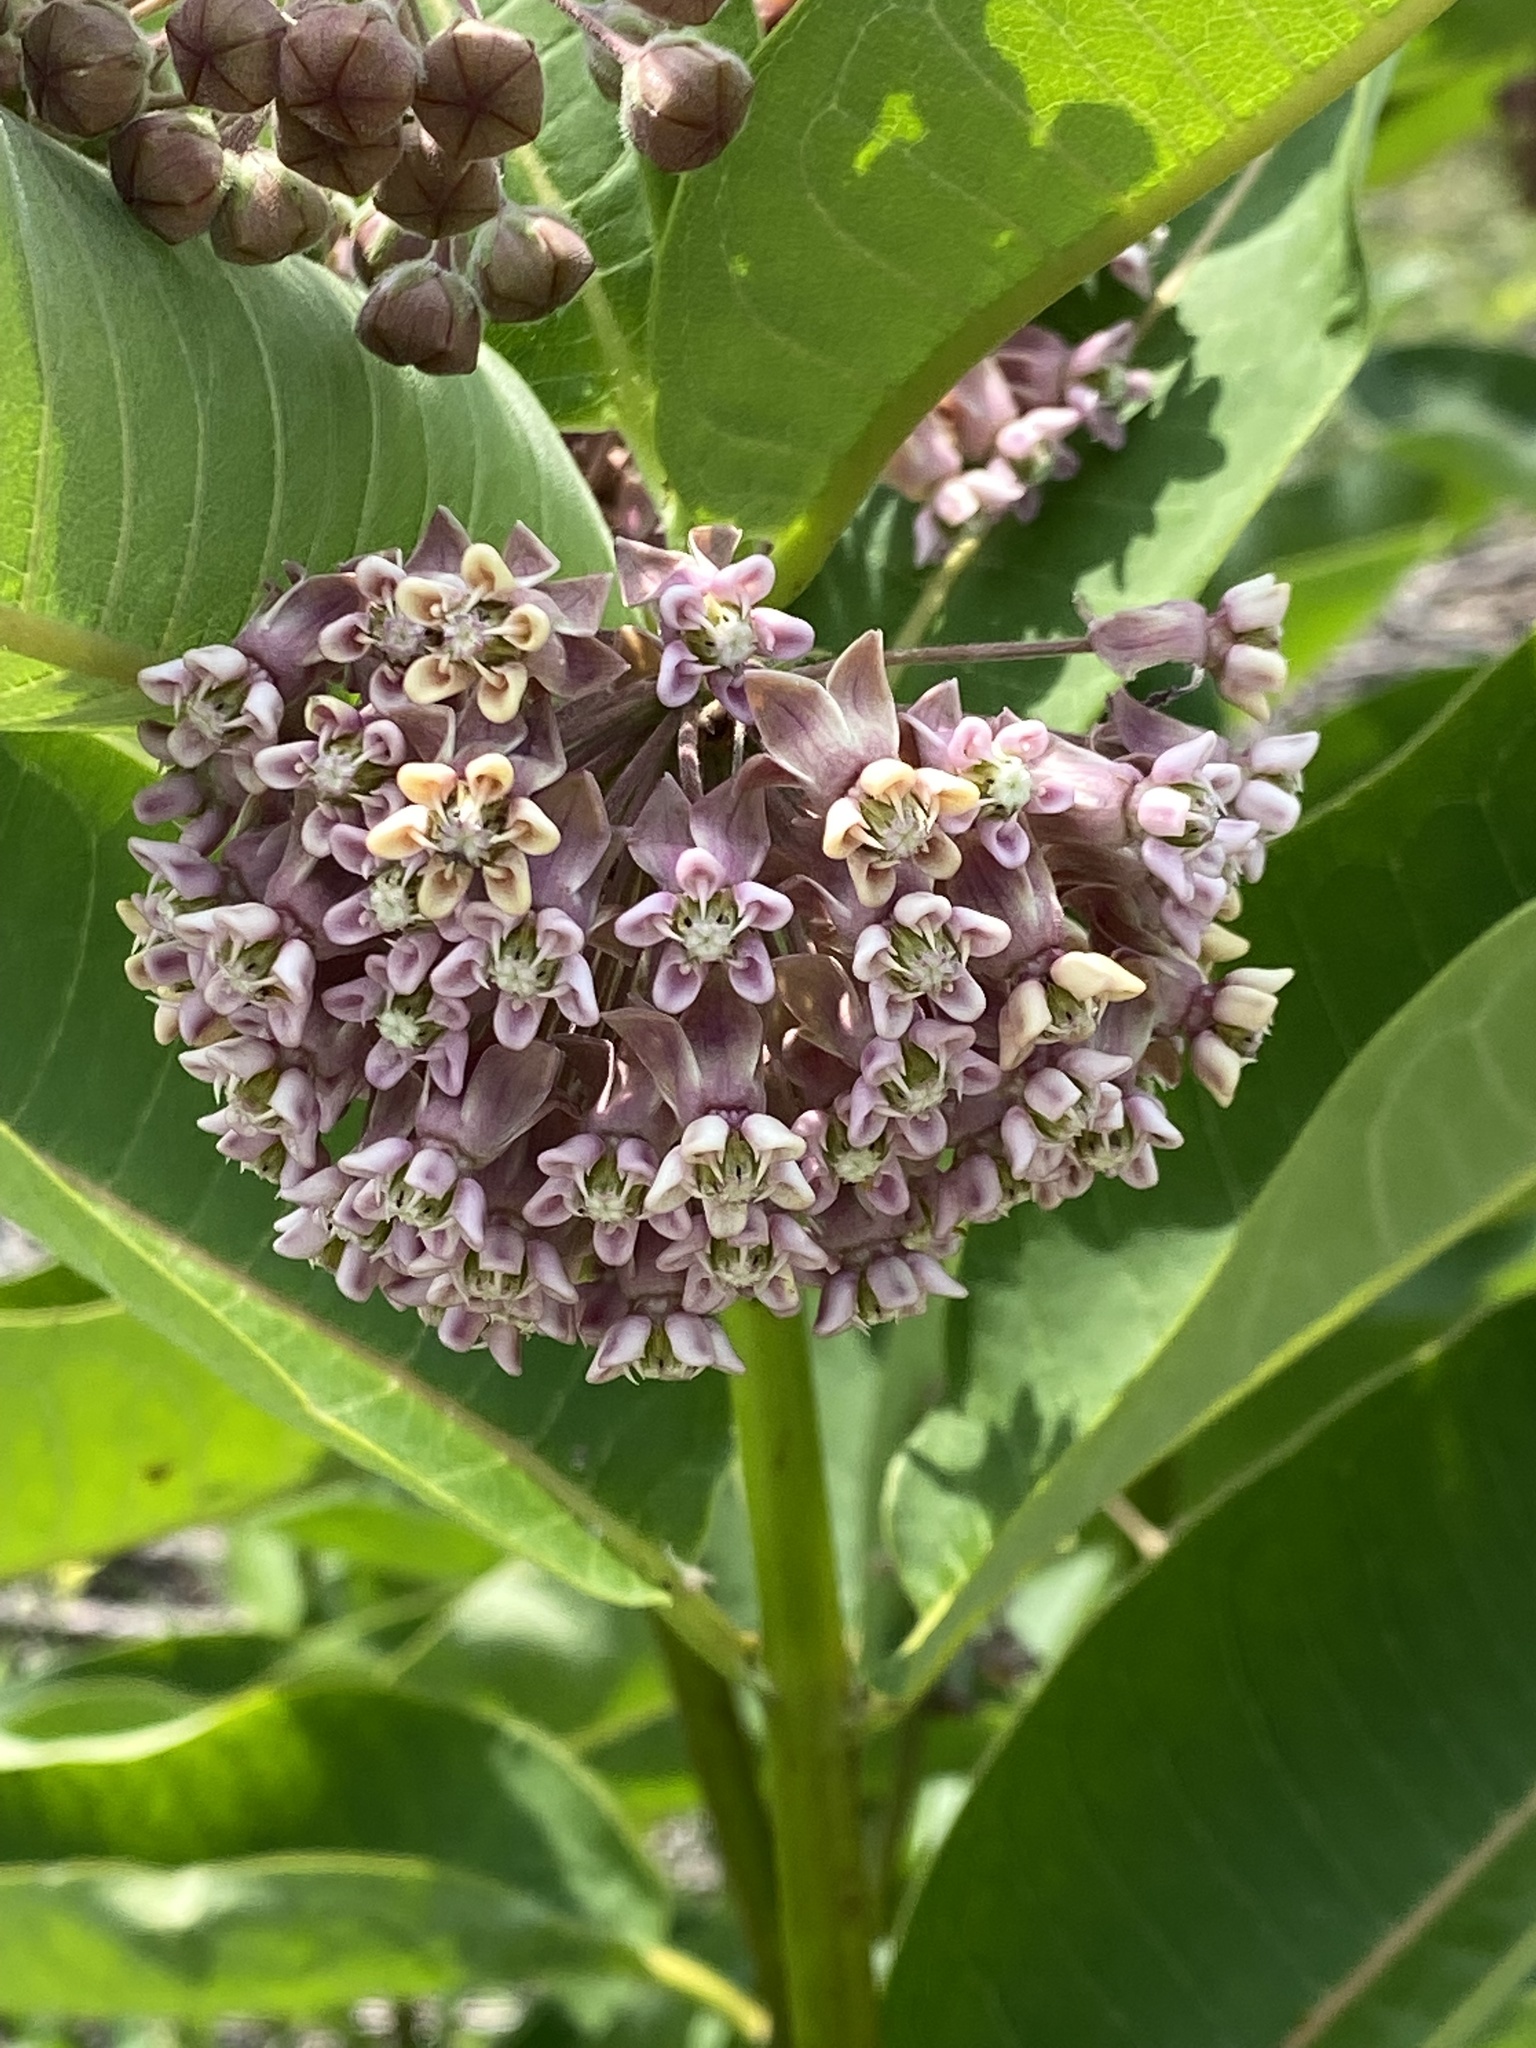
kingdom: Plantae
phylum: Tracheophyta
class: Magnoliopsida
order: Gentianales
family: Apocynaceae
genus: Asclepias
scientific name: Asclepias syriaca
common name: Common milkweed
